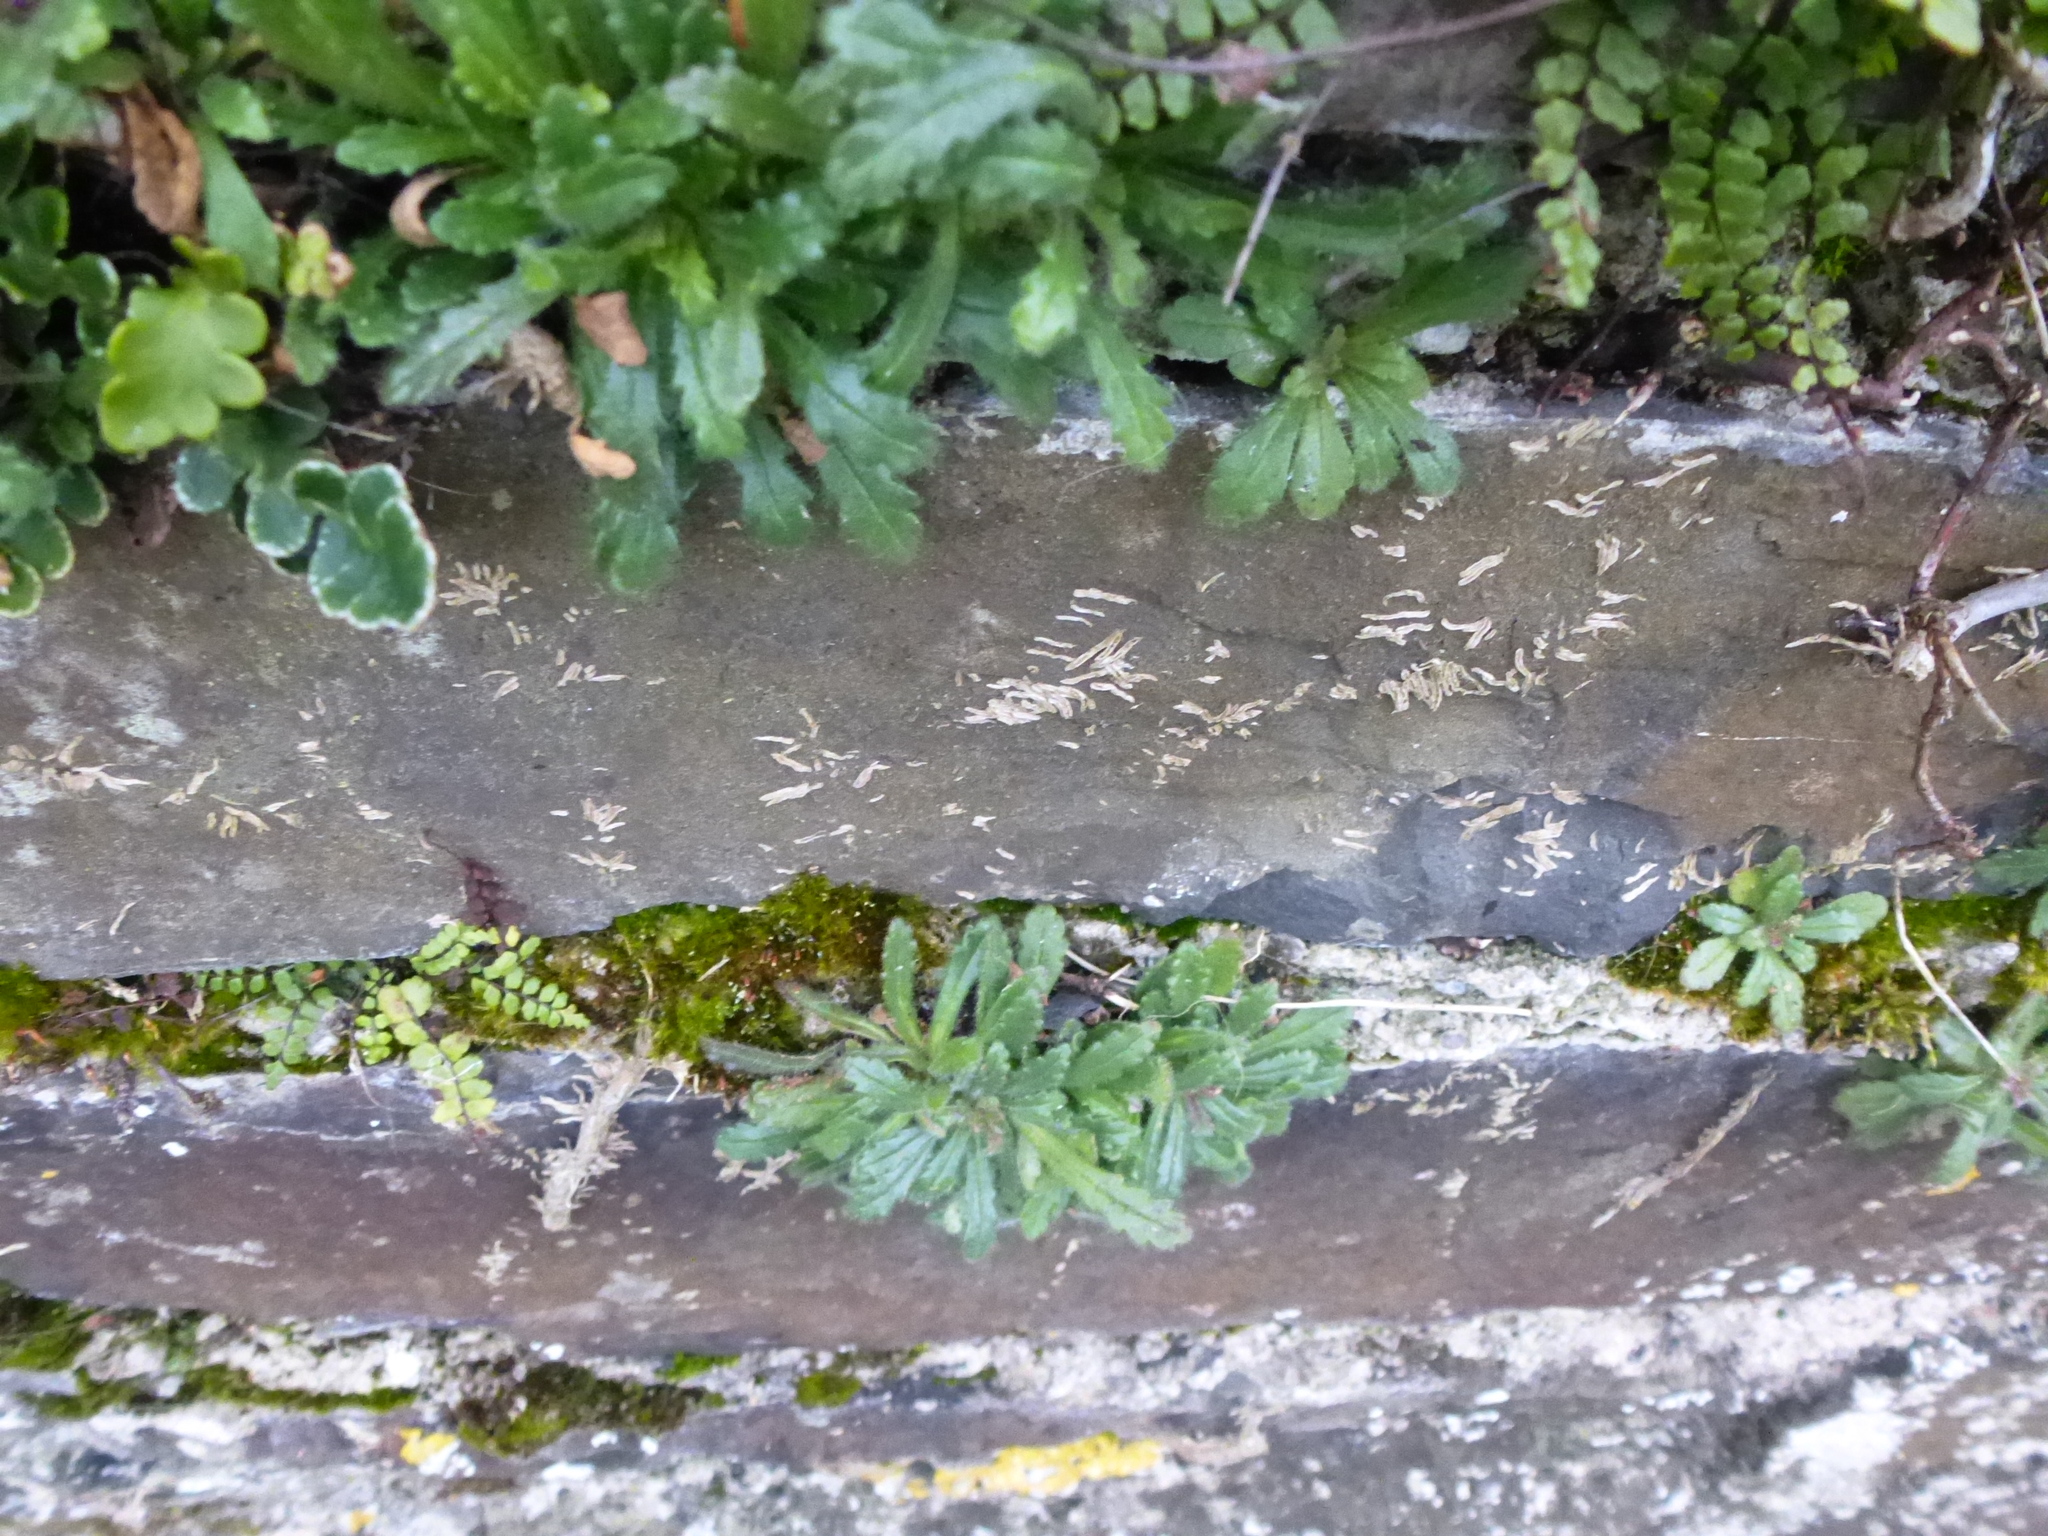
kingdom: Plantae
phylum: Tracheophyta
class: Magnoliopsida
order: Lamiales
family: Plantaginaceae
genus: Erinus
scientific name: Erinus alpinus
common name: Fairy foxglove
